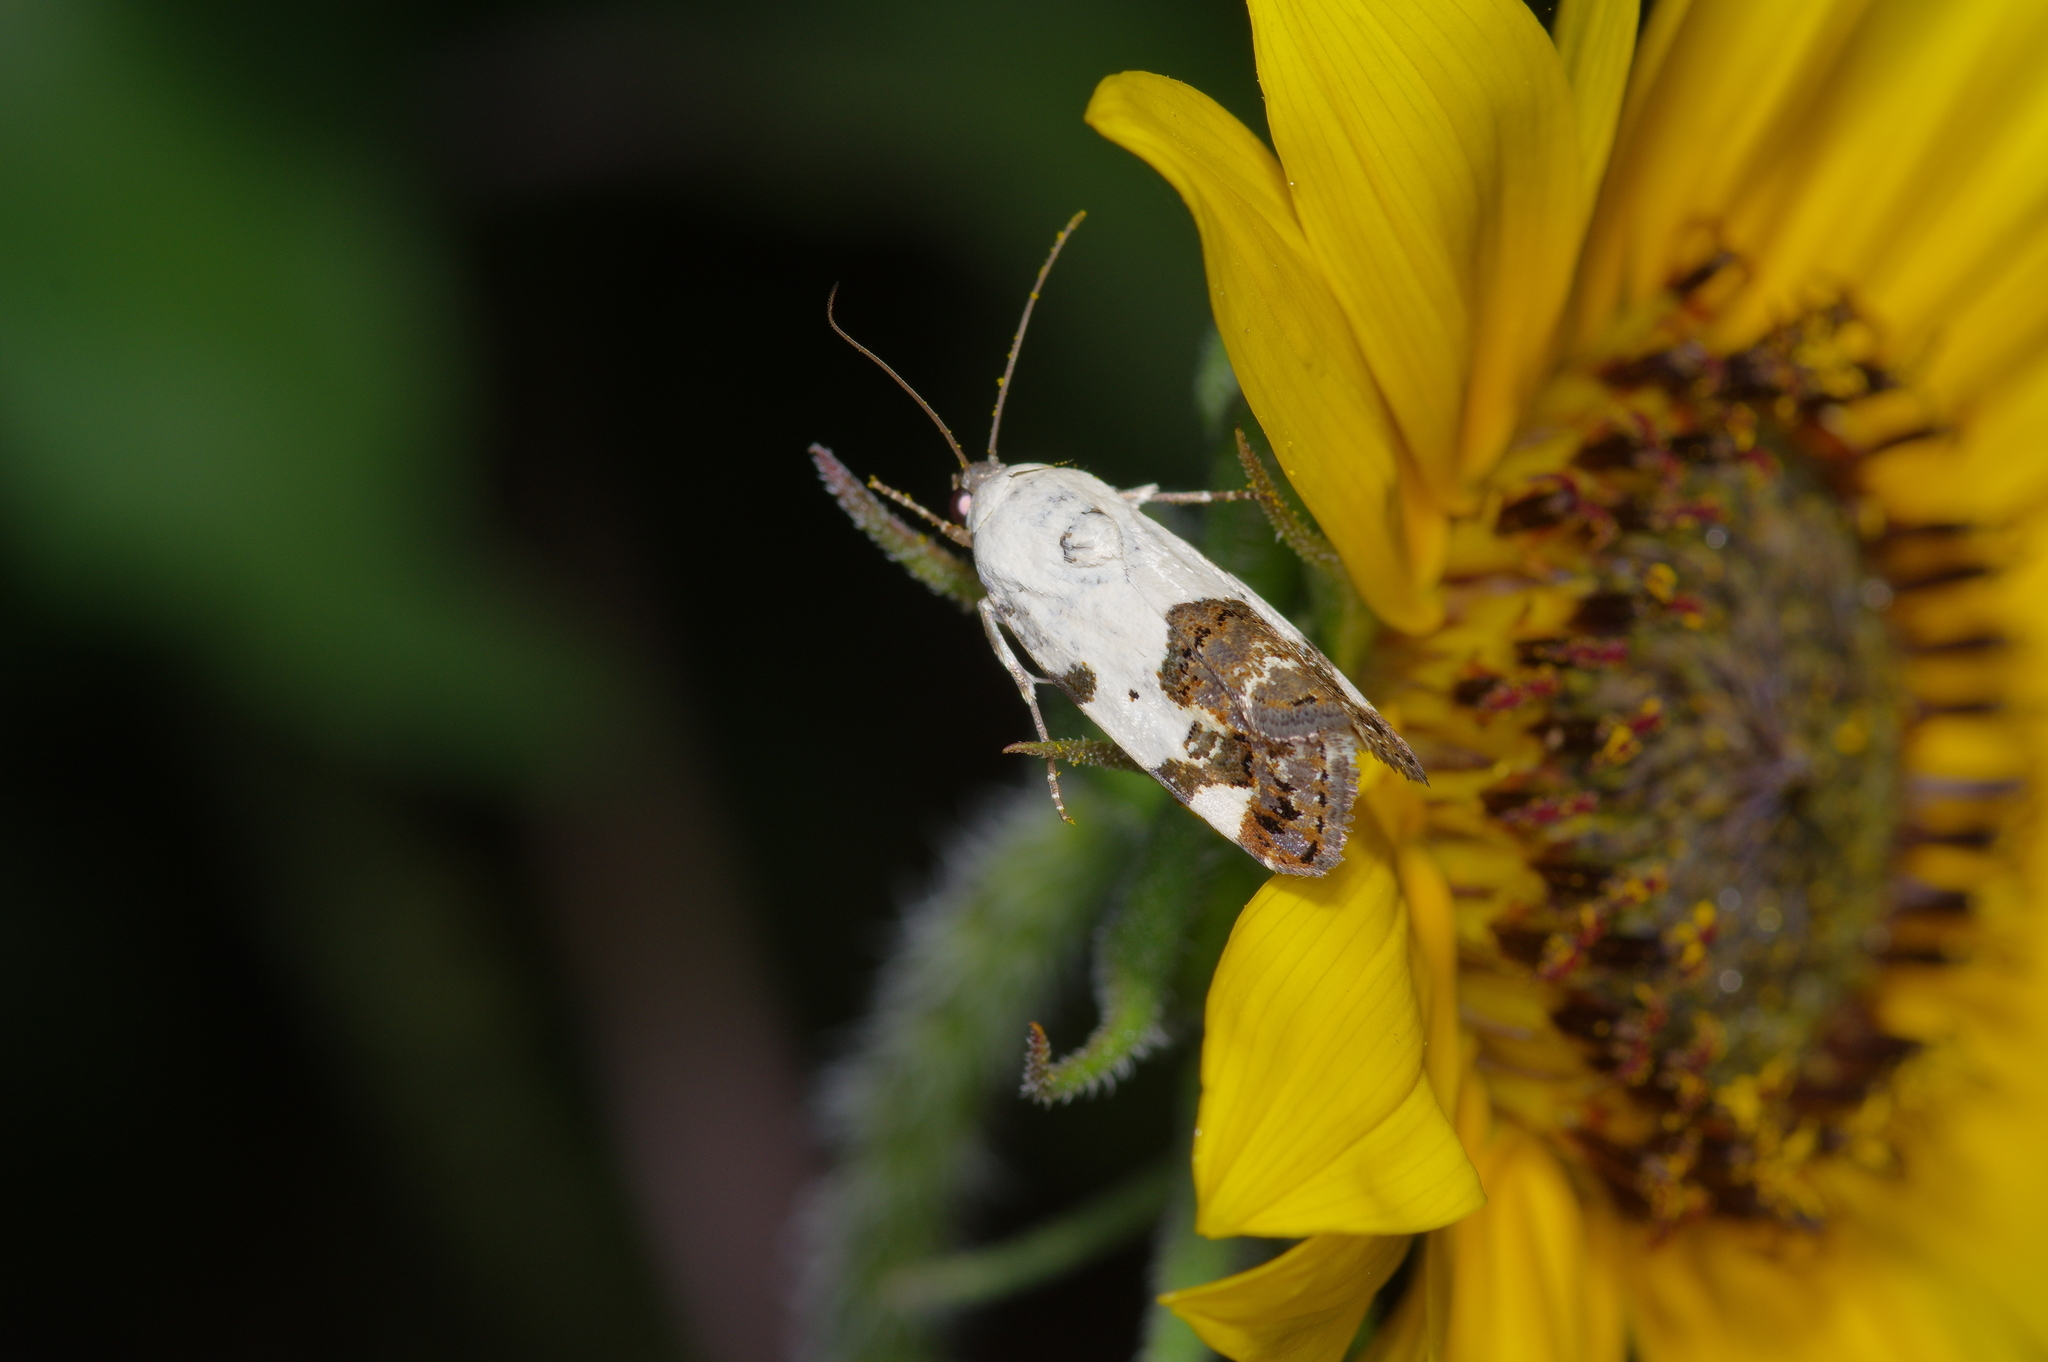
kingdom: Animalia
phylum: Arthropoda
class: Insecta
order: Lepidoptera
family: Noctuidae
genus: Acontia
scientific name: Acontia aprica
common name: Nun
